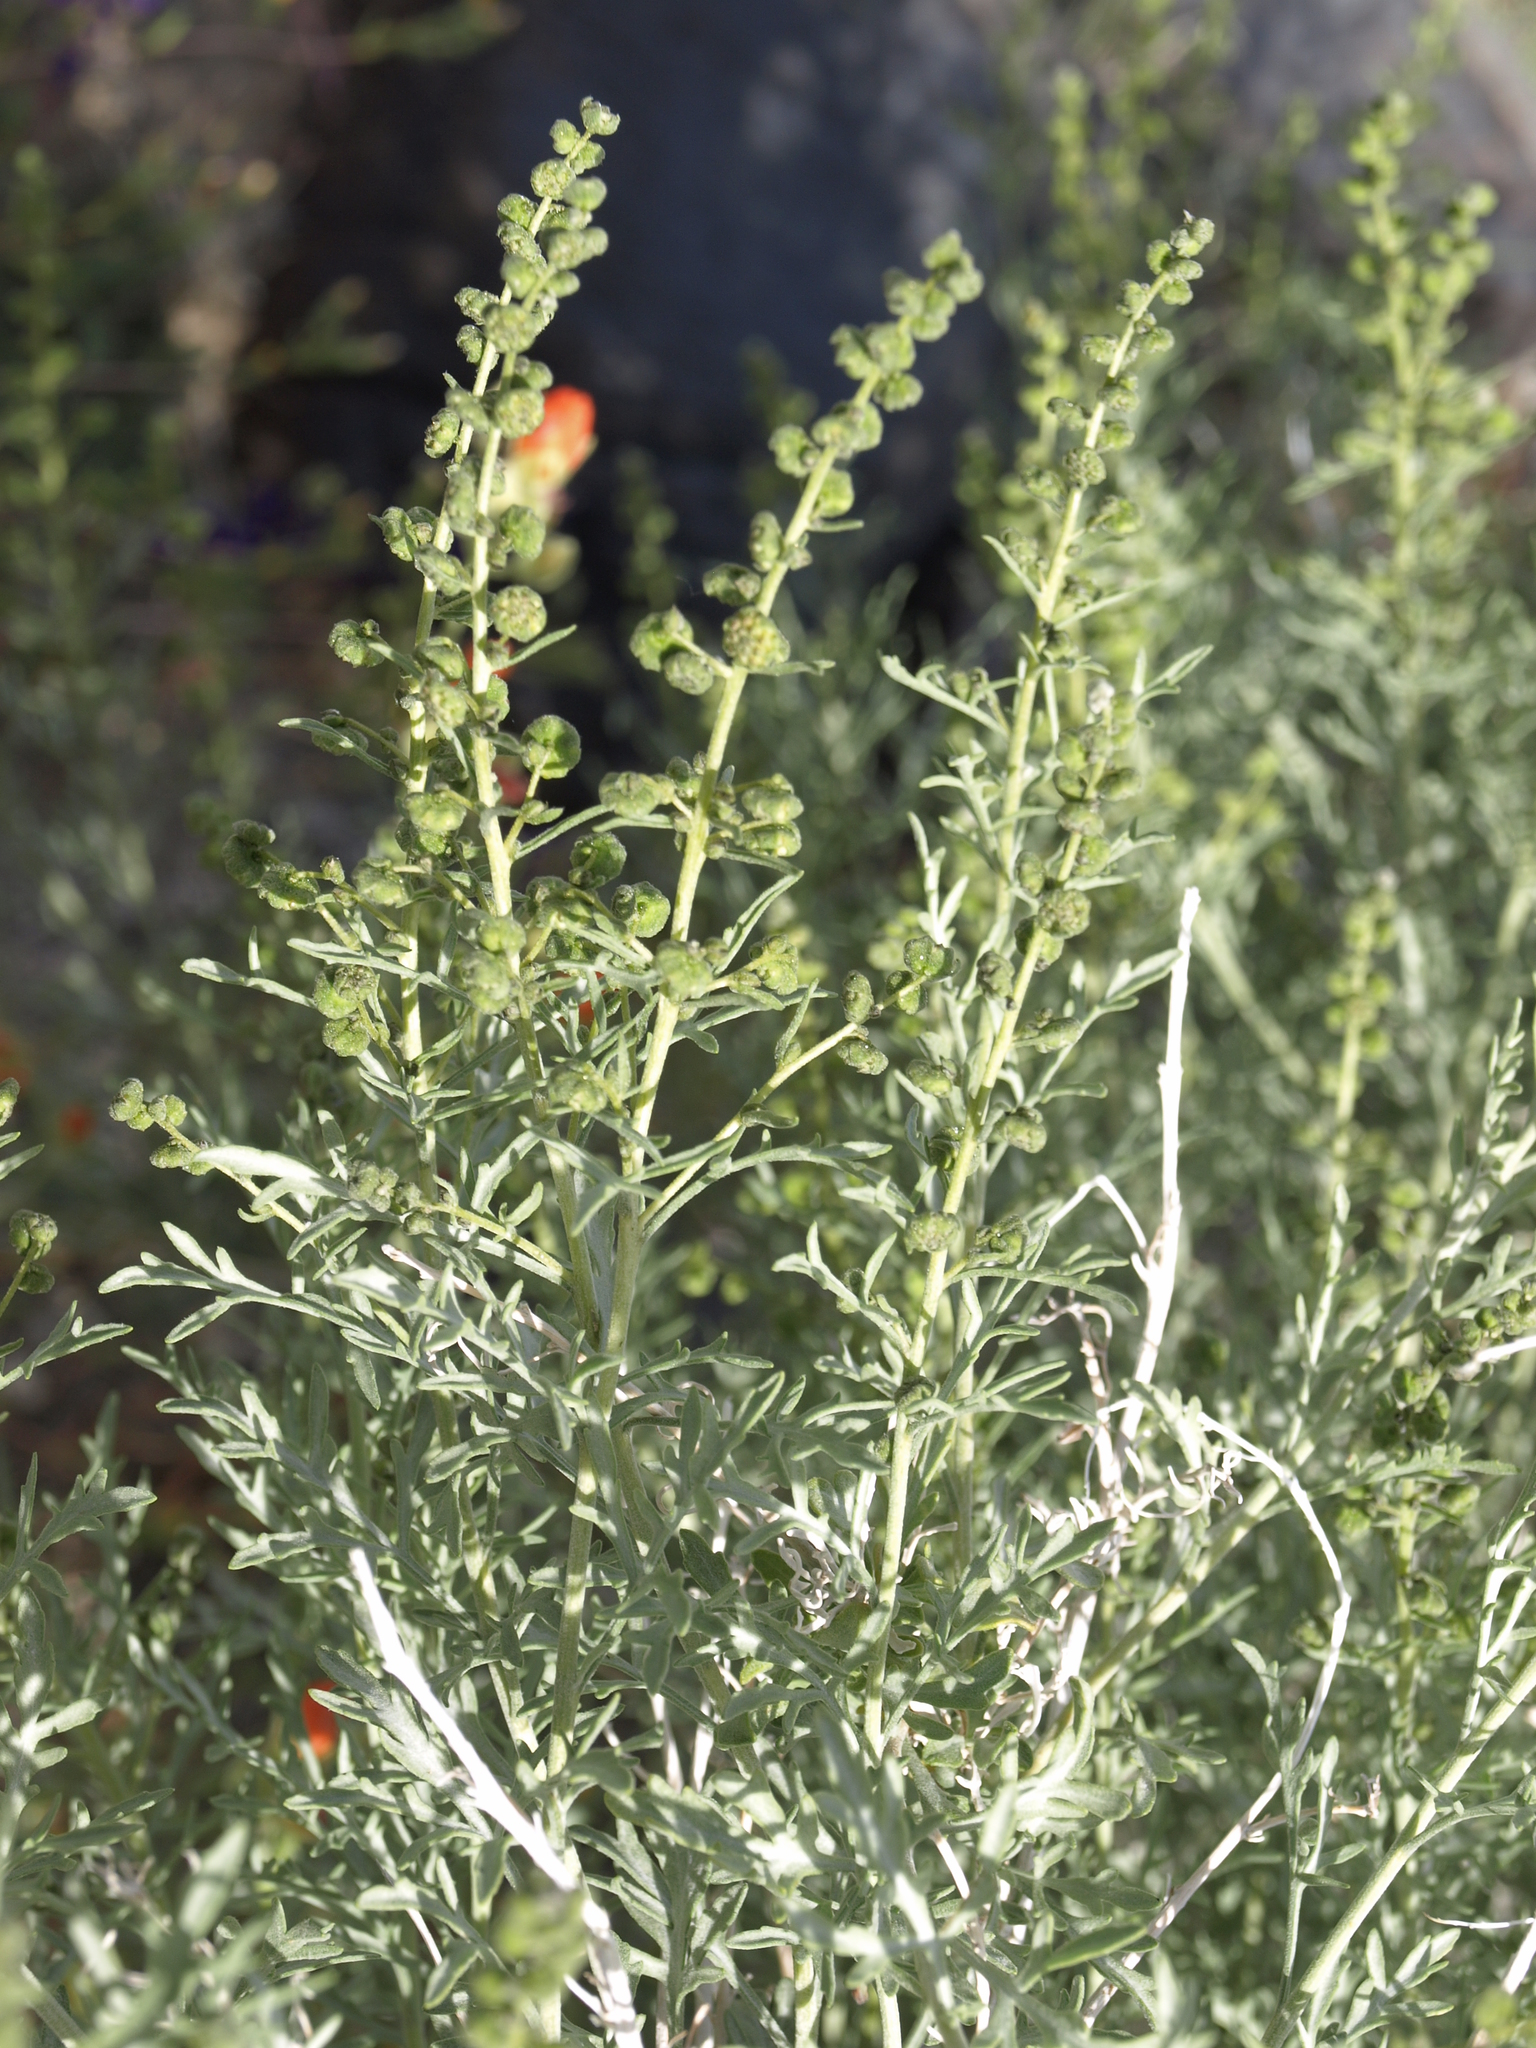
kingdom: Plantae
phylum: Tracheophyta
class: Magnoliopsida
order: Asterales
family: Asteraceae
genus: Ambrosia
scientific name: Ambrosia platyspina
